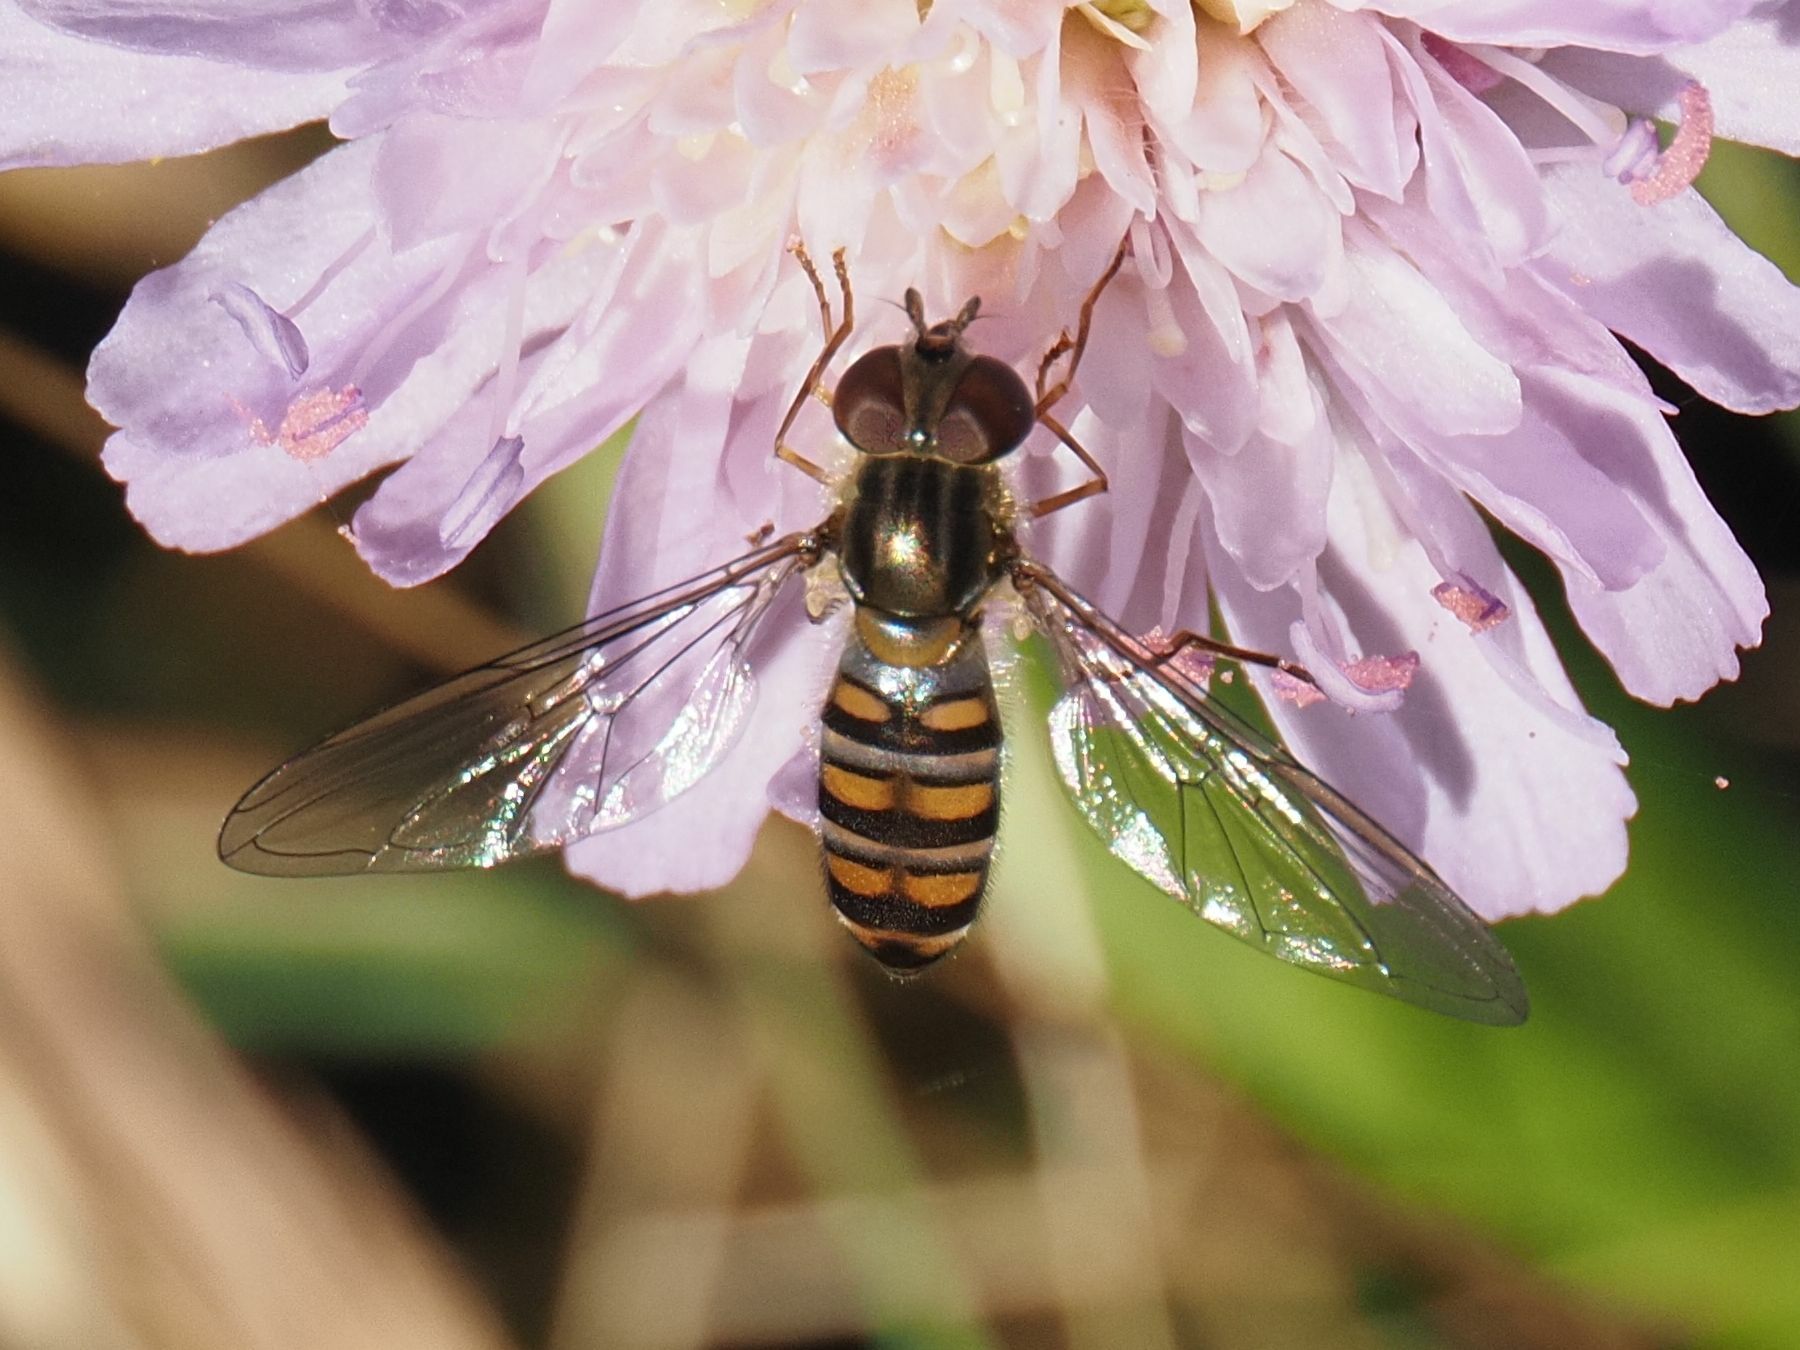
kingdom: Animalia
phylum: Arthropoda
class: Insecta
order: Diptera
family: Syrphidae
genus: Episyrphus
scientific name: Episyrphus balteatus
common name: Marmalade hoverfly
